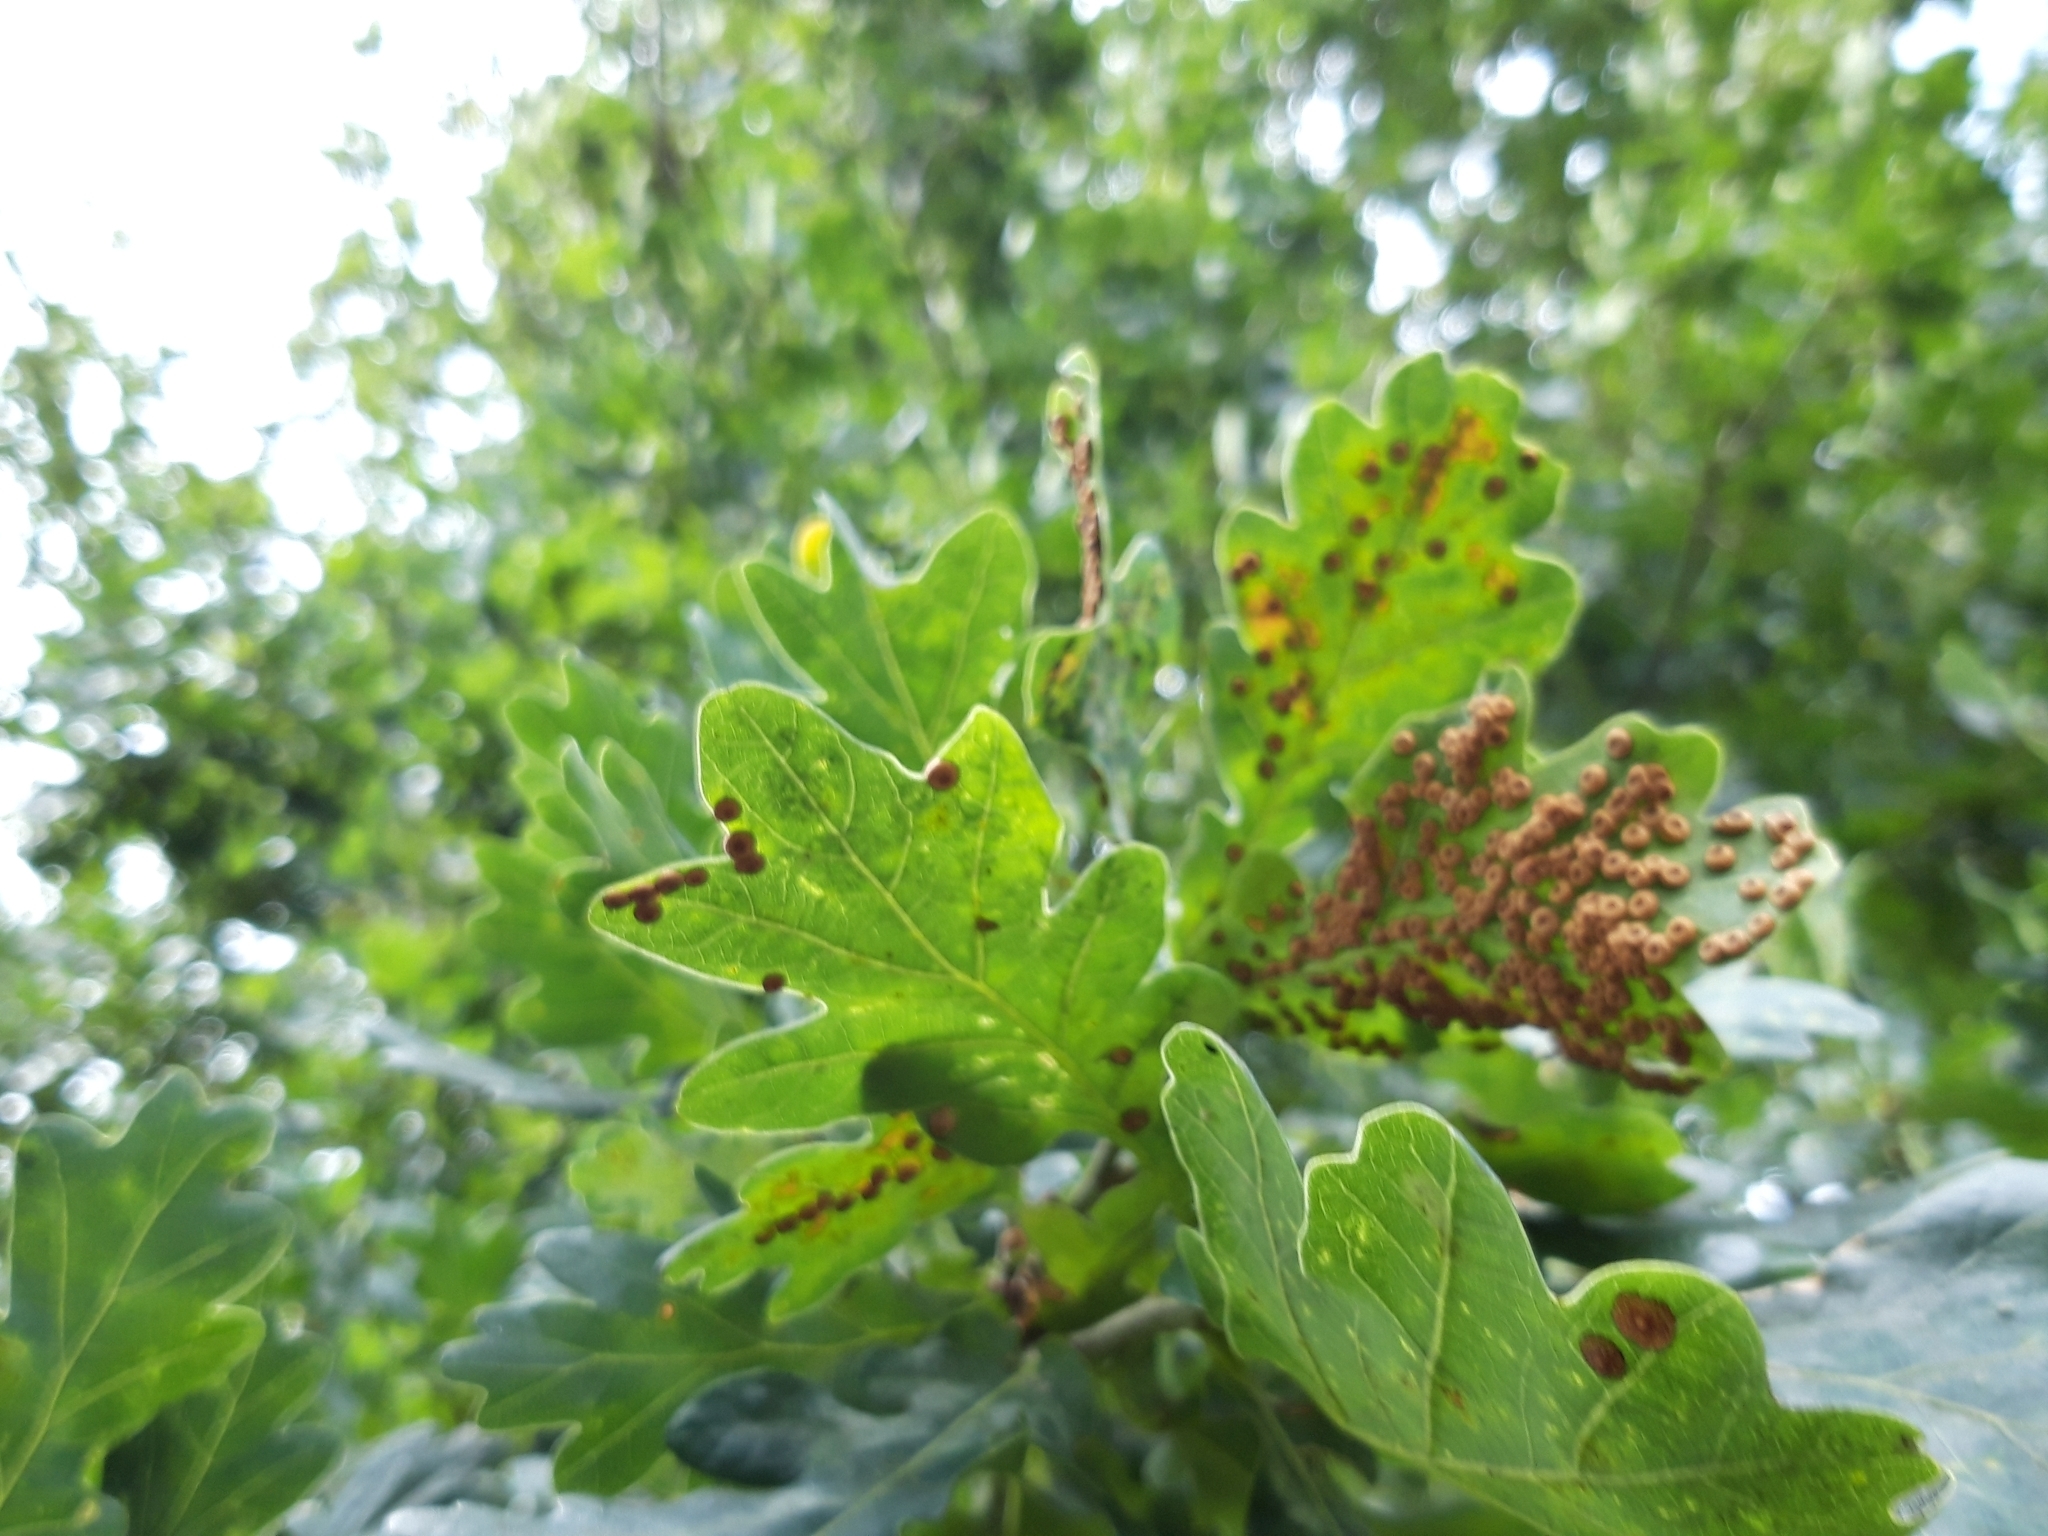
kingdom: Animalia
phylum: Arthropoda
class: Insecta
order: Hymenoptera
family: Cynipidae
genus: Neuroterus
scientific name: Neuroterus numismalis
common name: Silk-button spangle gall
